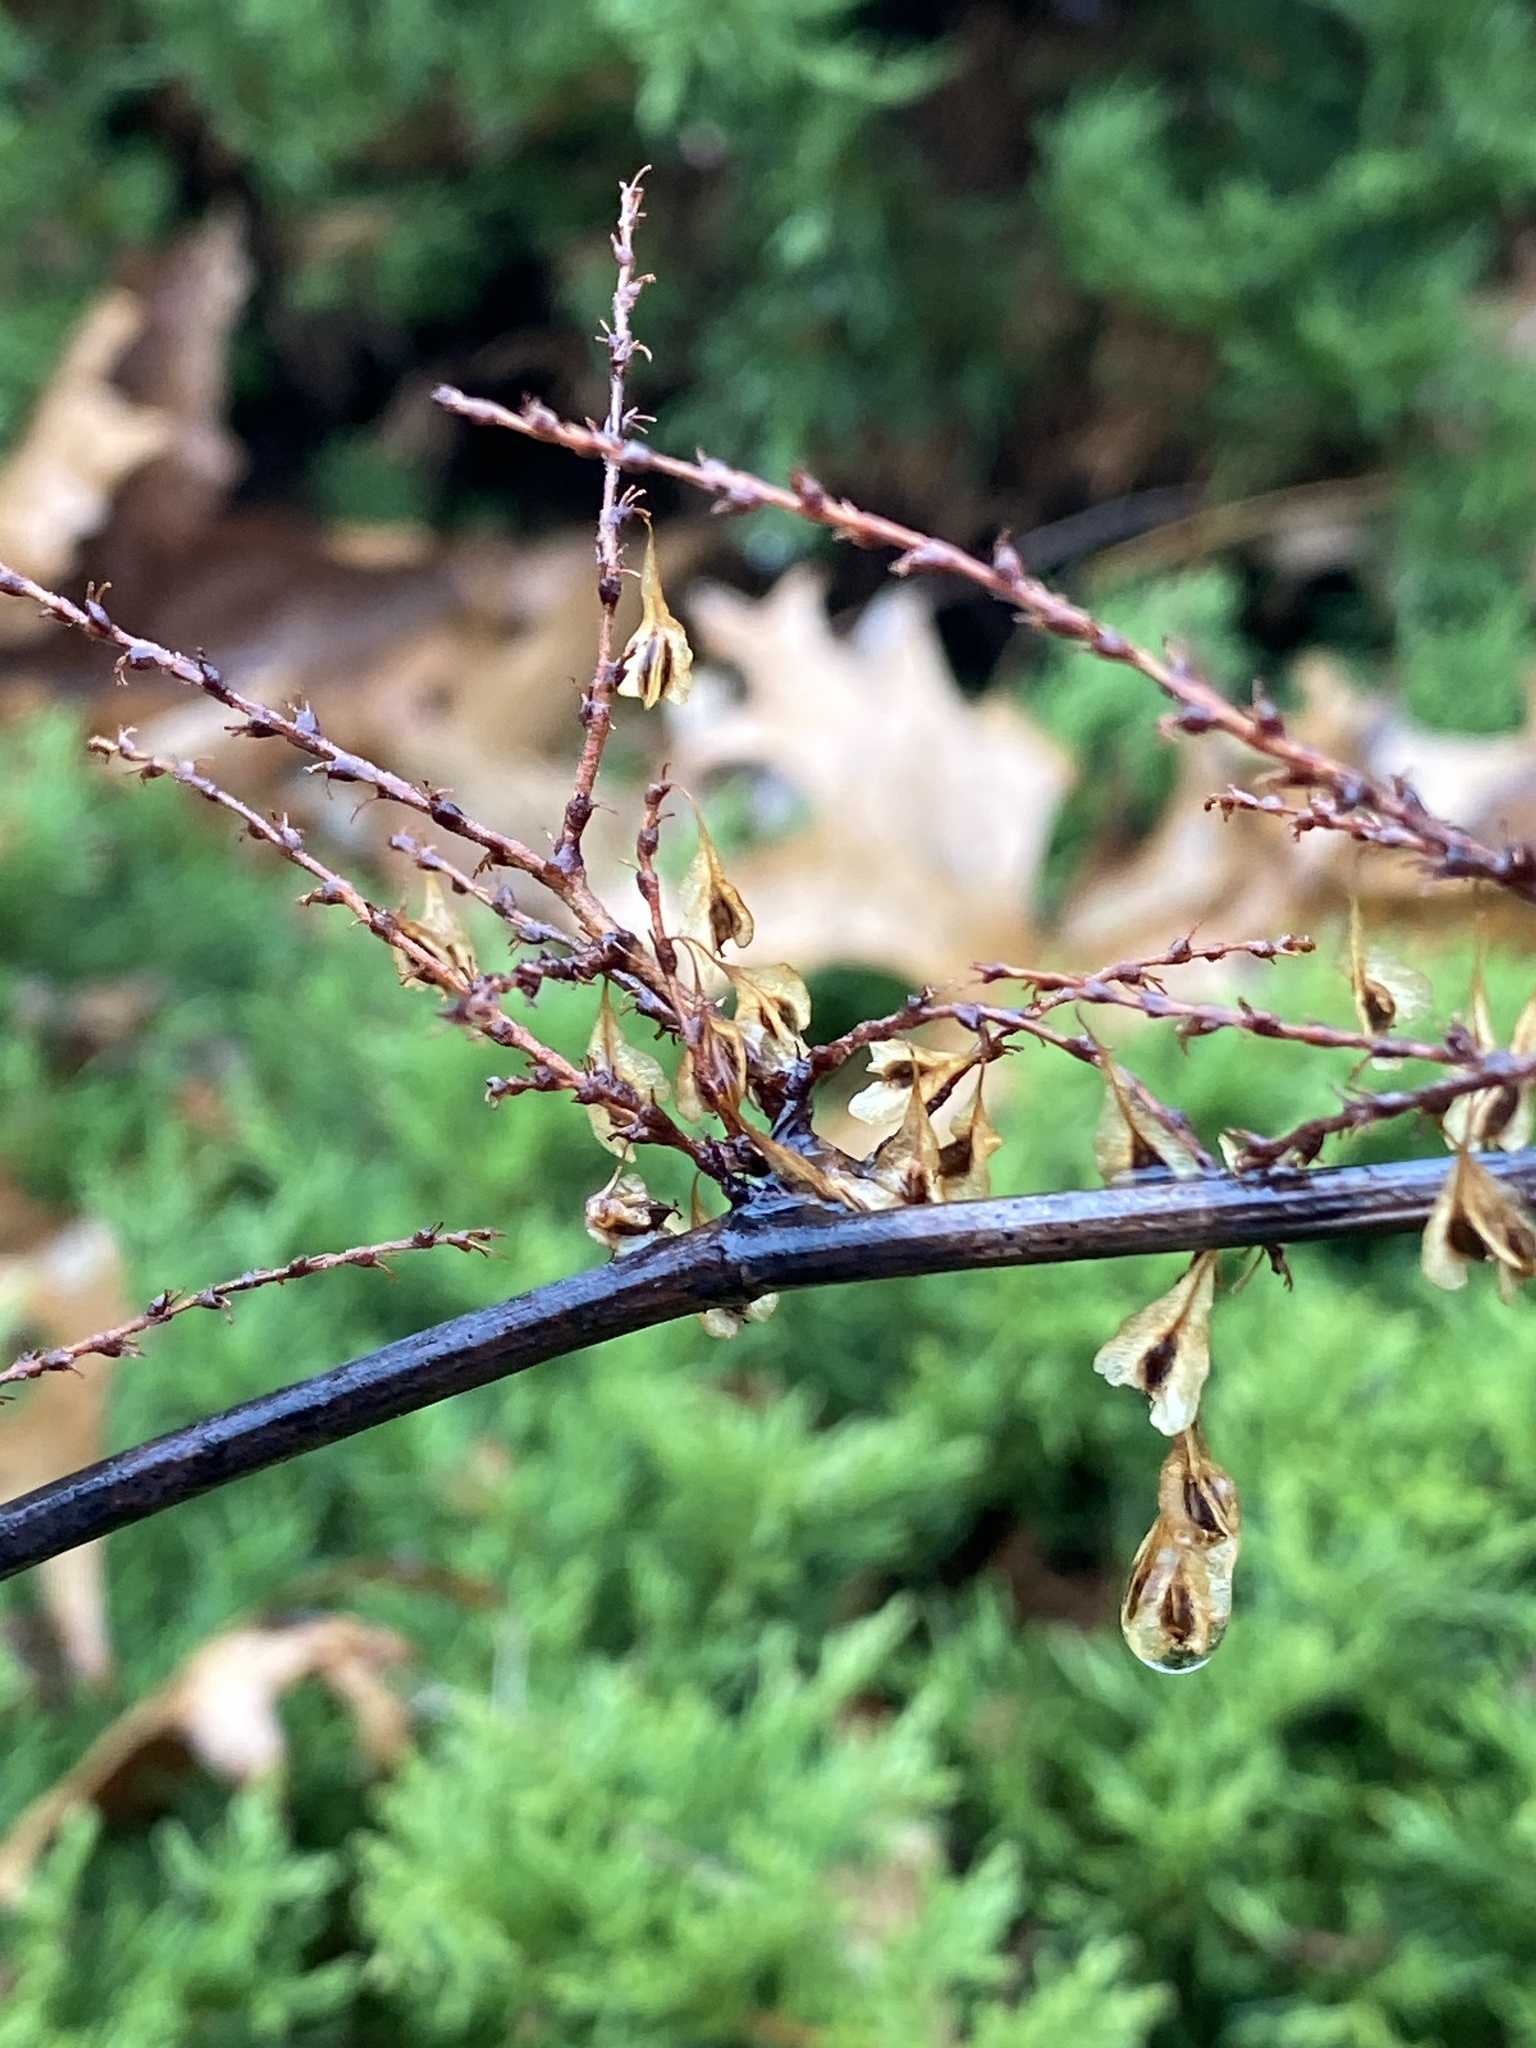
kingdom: Plantae
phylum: Tracheophyta
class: Magnoliopsida
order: Caryophyllales
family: Polygonaceae
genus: Reynoutria
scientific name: Reynoutria japonica
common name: Japanese knotweed
